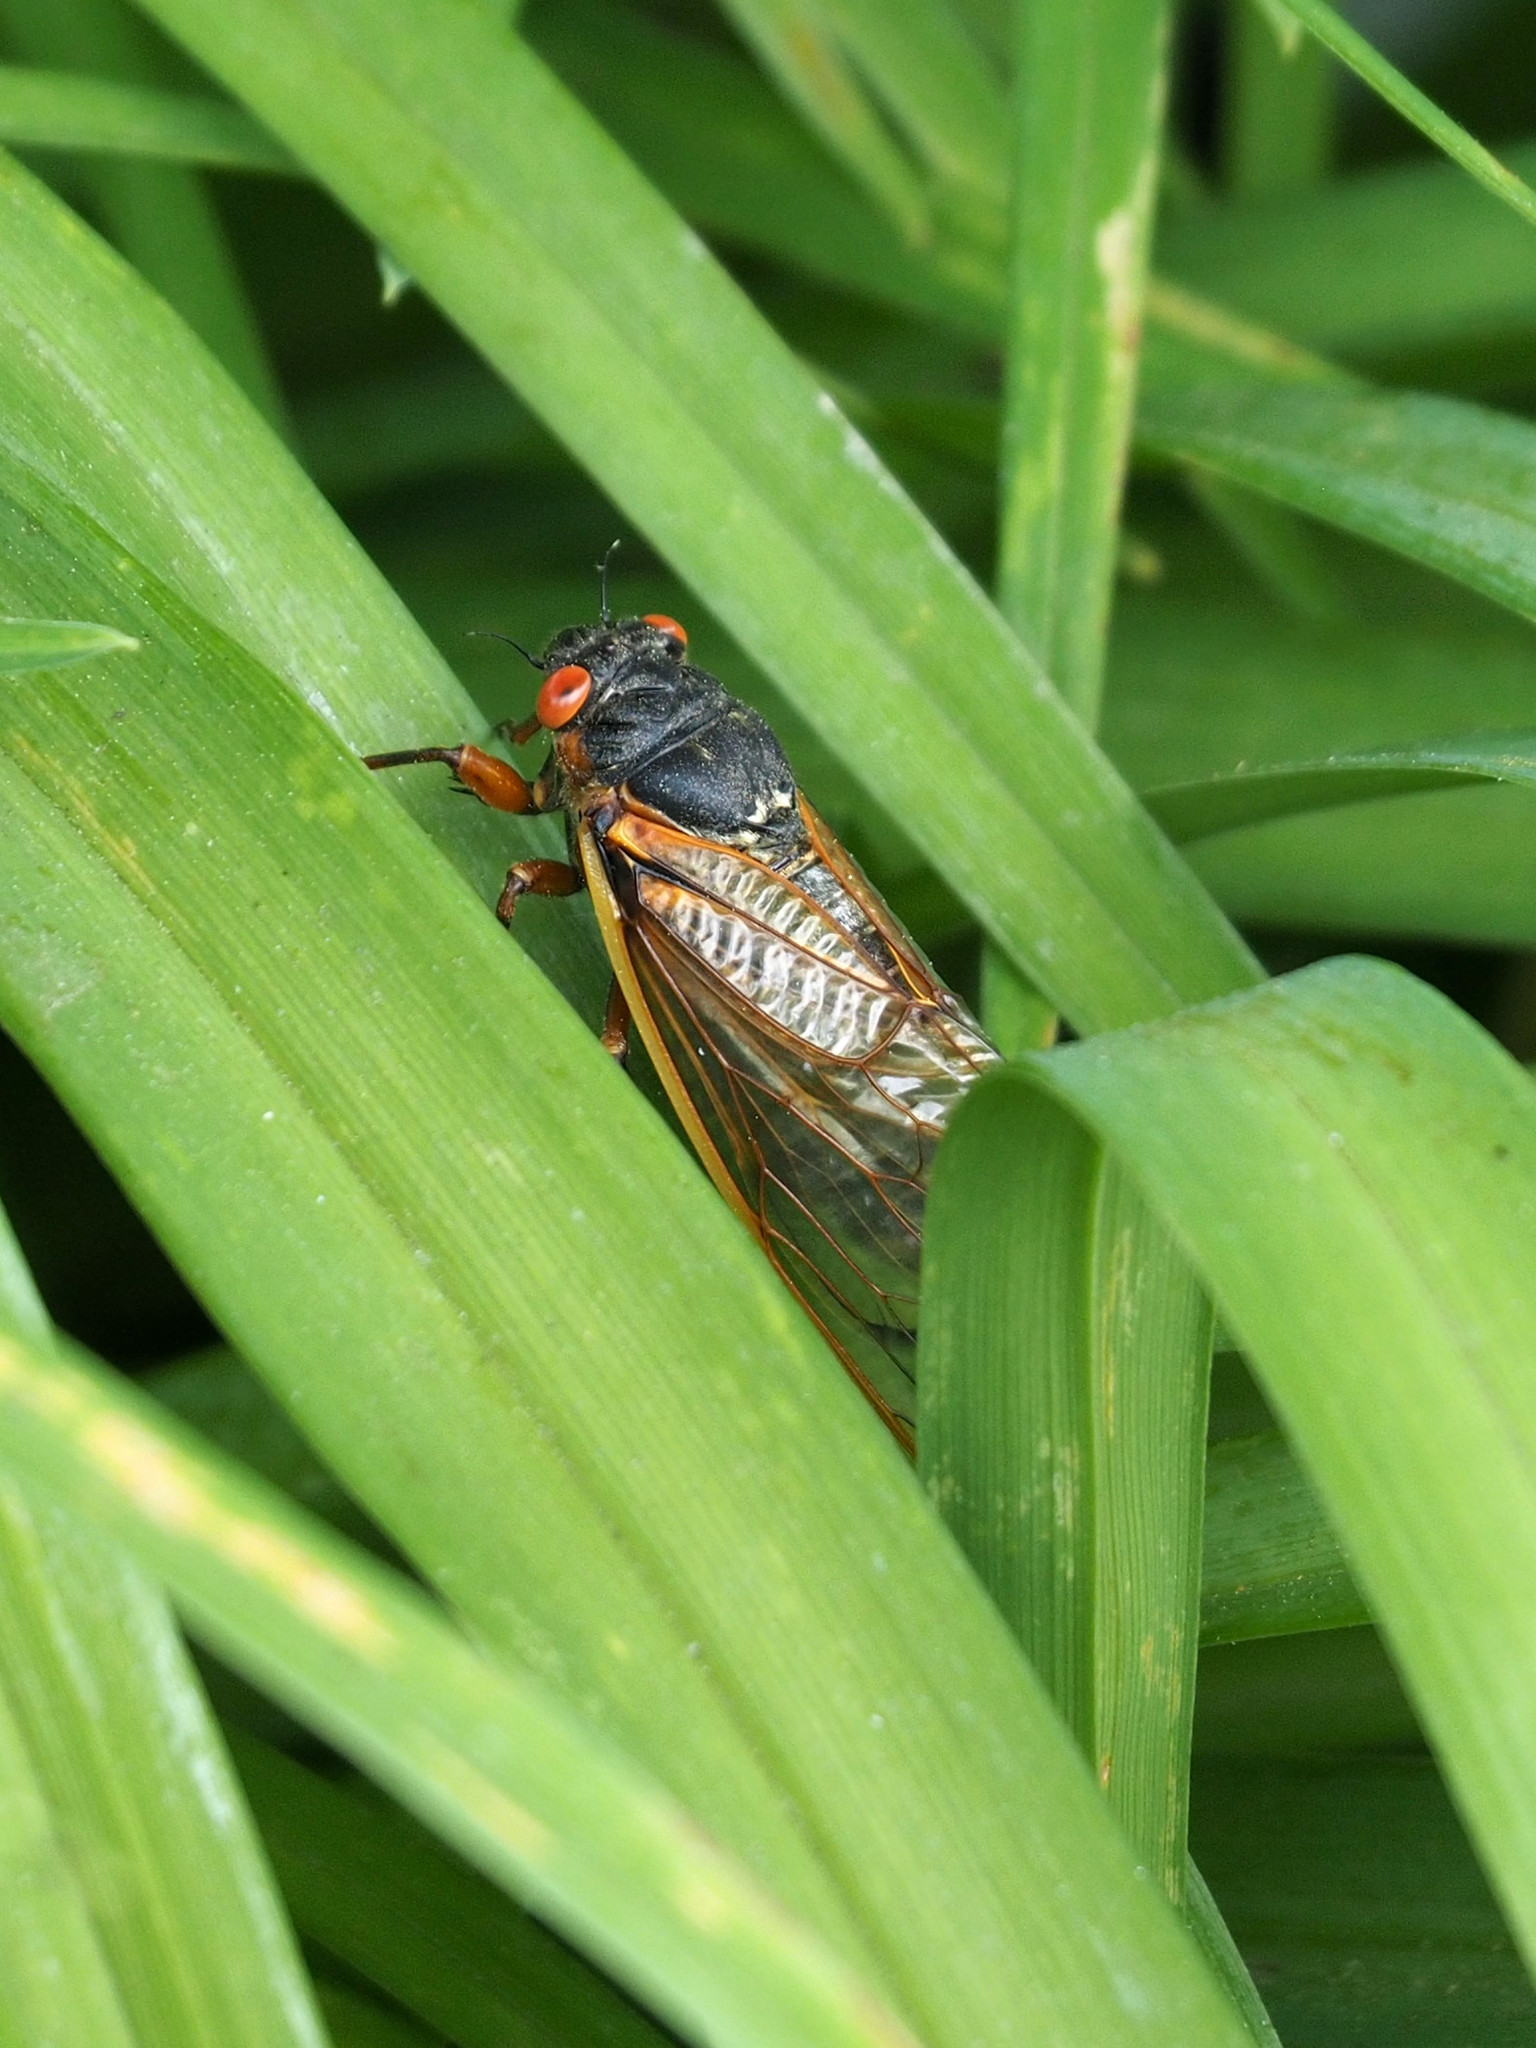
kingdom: Animalia
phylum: Arthropoda
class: Insecta
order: Hemiptera
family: Cicadidae
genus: Magicicada
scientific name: Magicicada septendecim
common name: Periodical cicada
